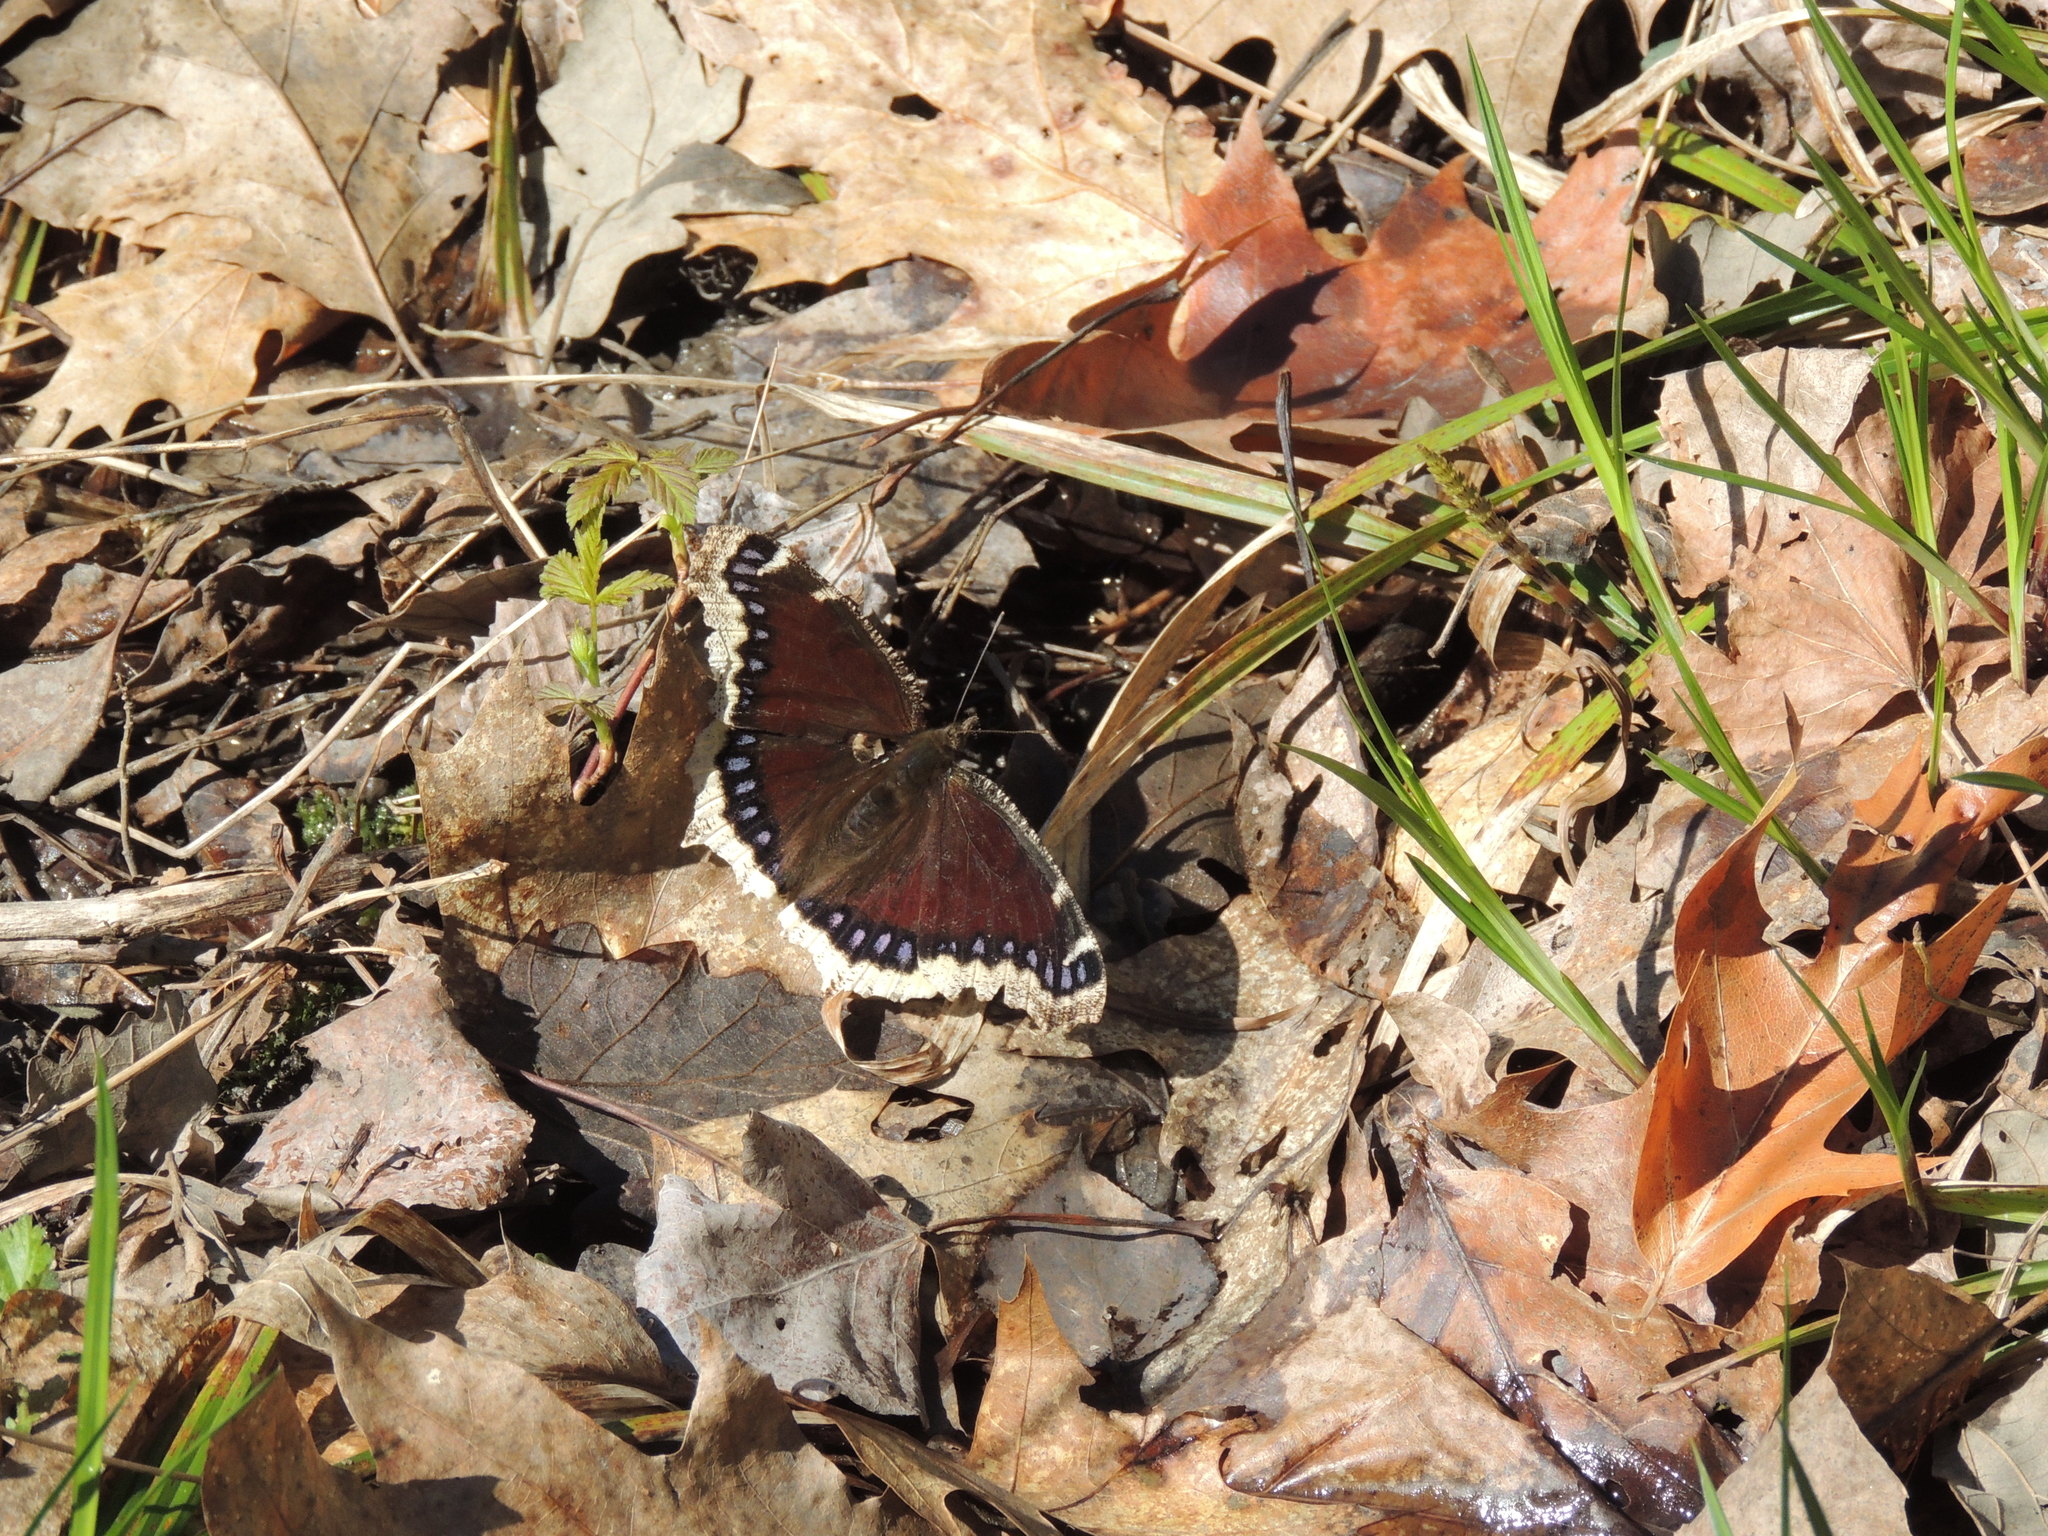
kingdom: Animalia
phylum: Arthropoda
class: Insecta
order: Lepidoptera
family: Nymphalidae
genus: Nymphalis
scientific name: Nymphalis antiopa
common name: Camberwell beauty
